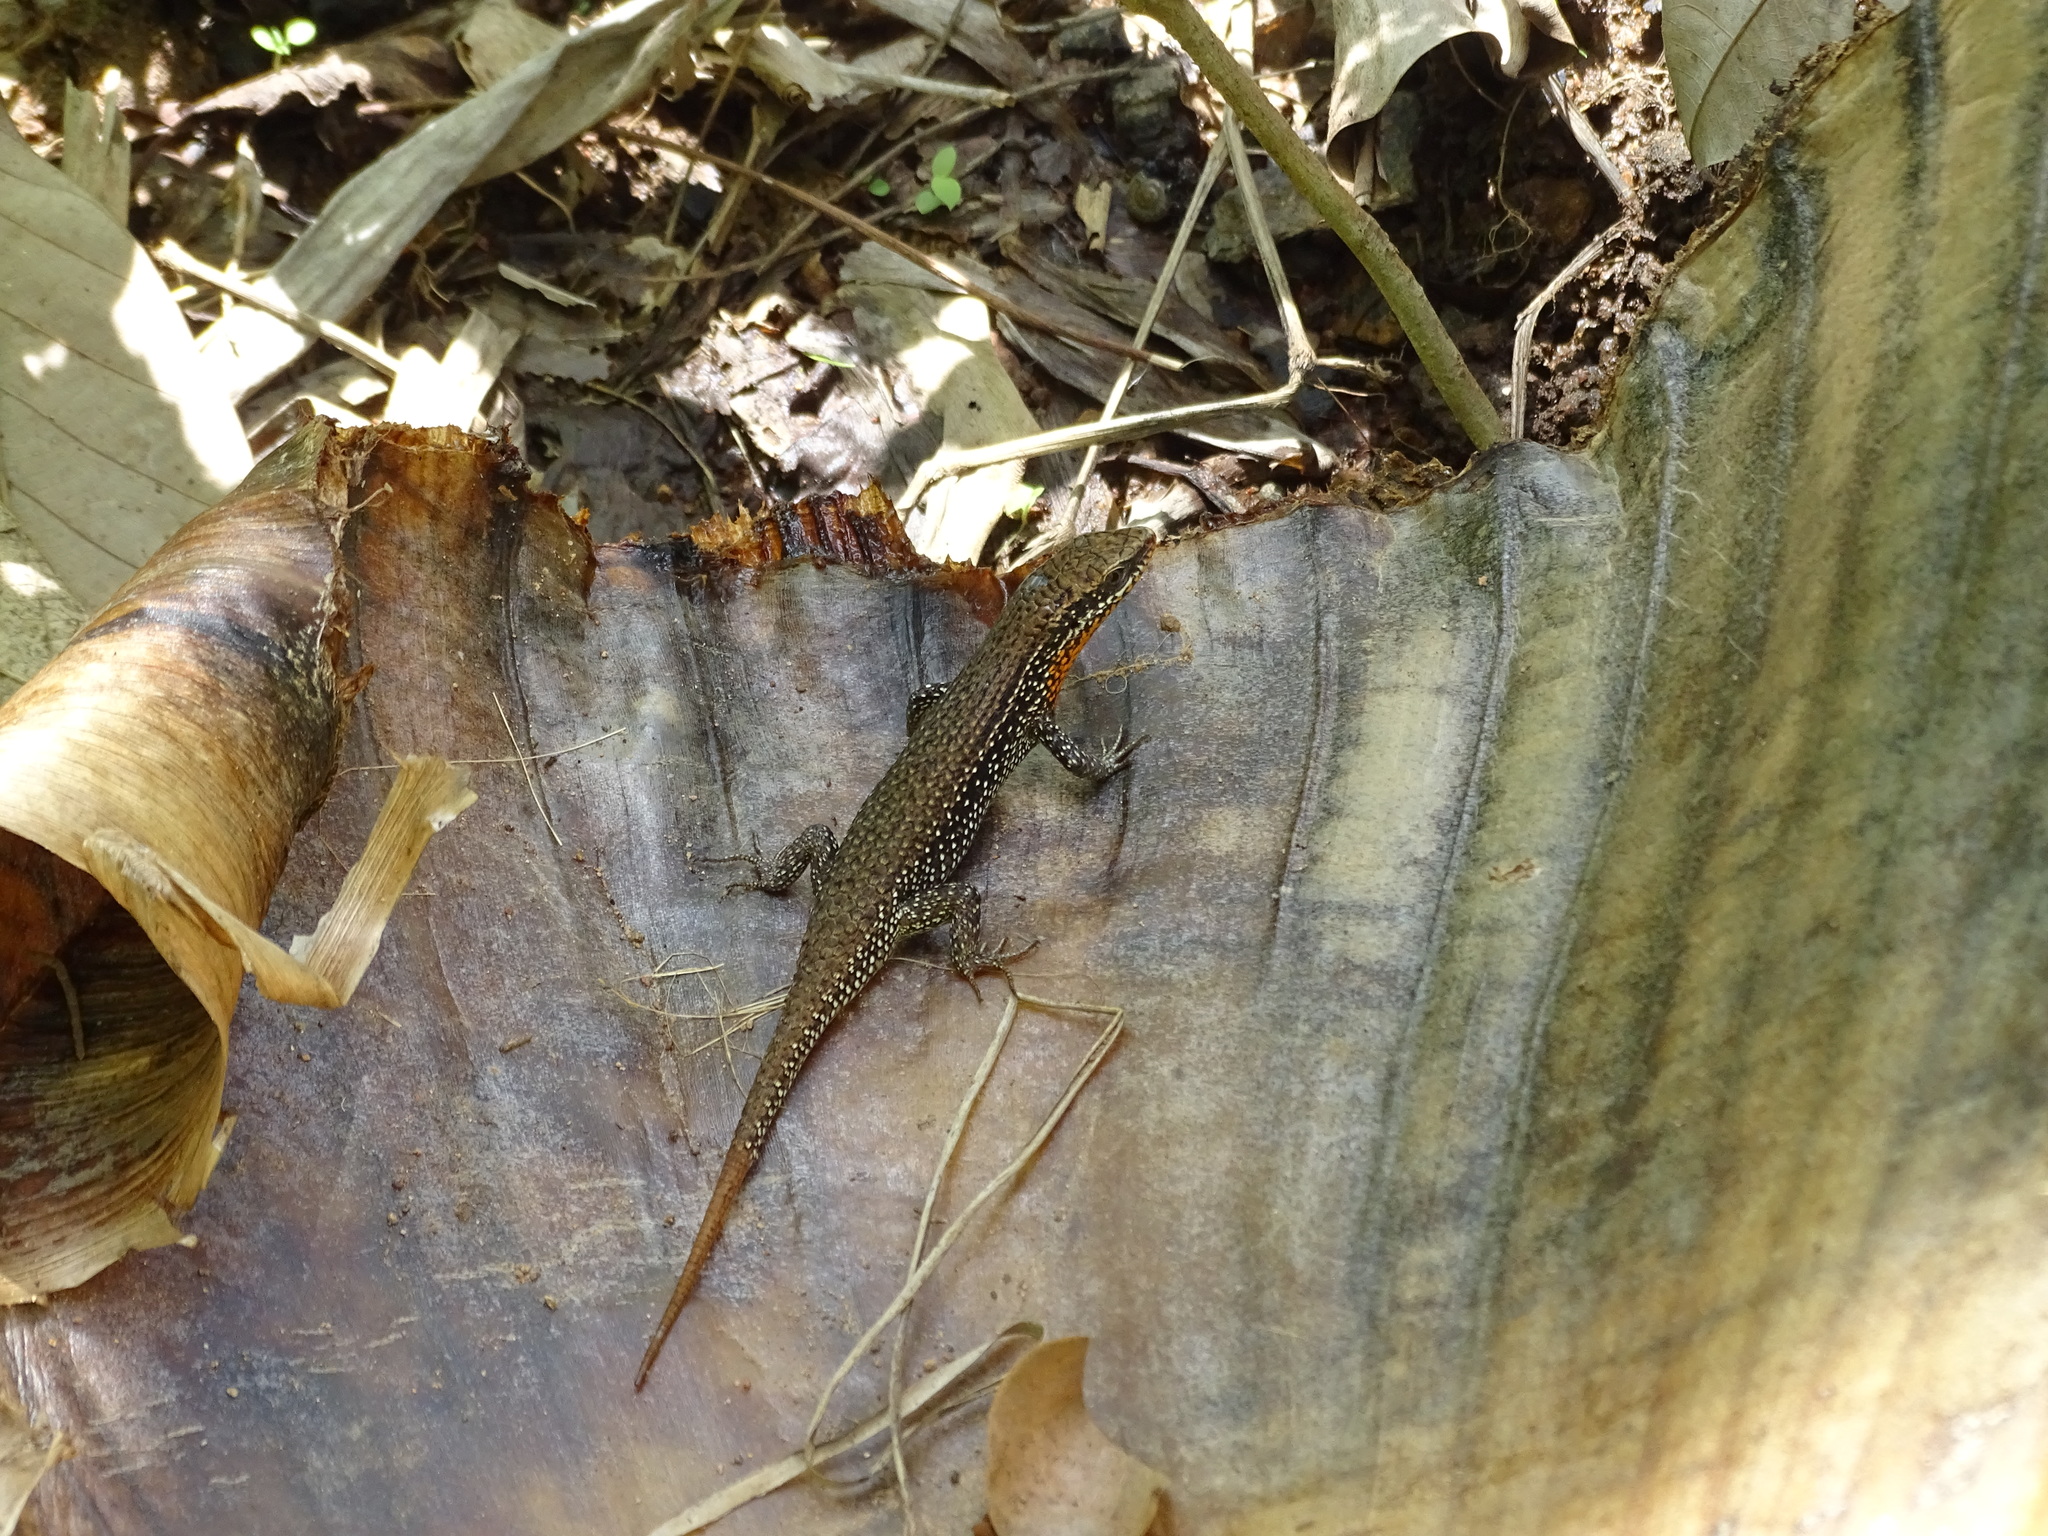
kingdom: Animalia
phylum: Chordata
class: Squamata
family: Scincidae
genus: Eutropis
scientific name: Eutropis macularia
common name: Bronze mabuya
